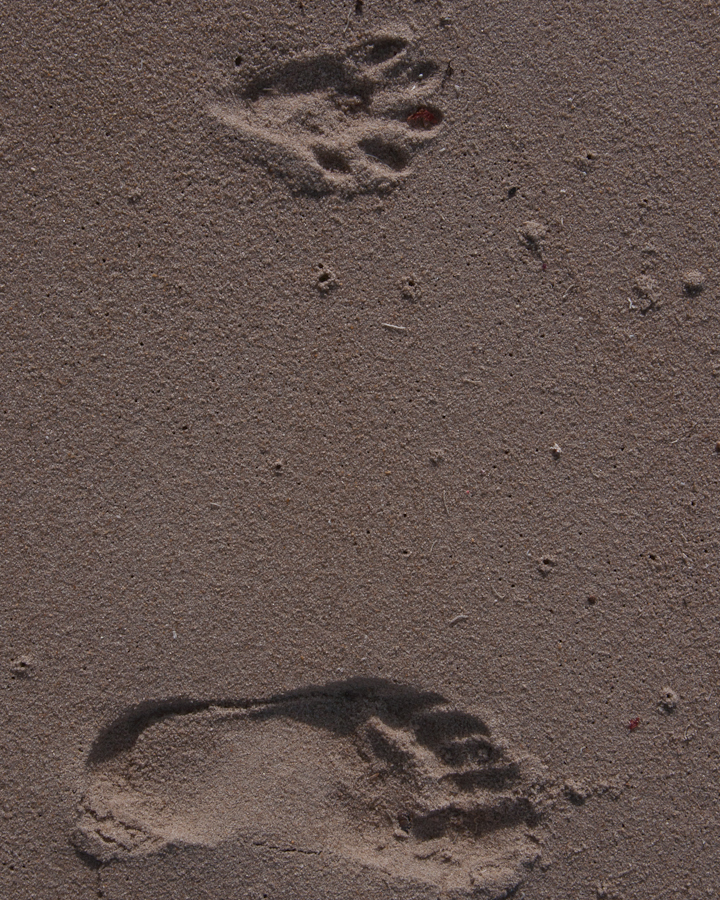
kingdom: Animalia
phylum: Chordata
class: Mammalia
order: Carnivora
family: Mustelidae
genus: Aonyx
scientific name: Aonyx capensis
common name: African clawless otter
